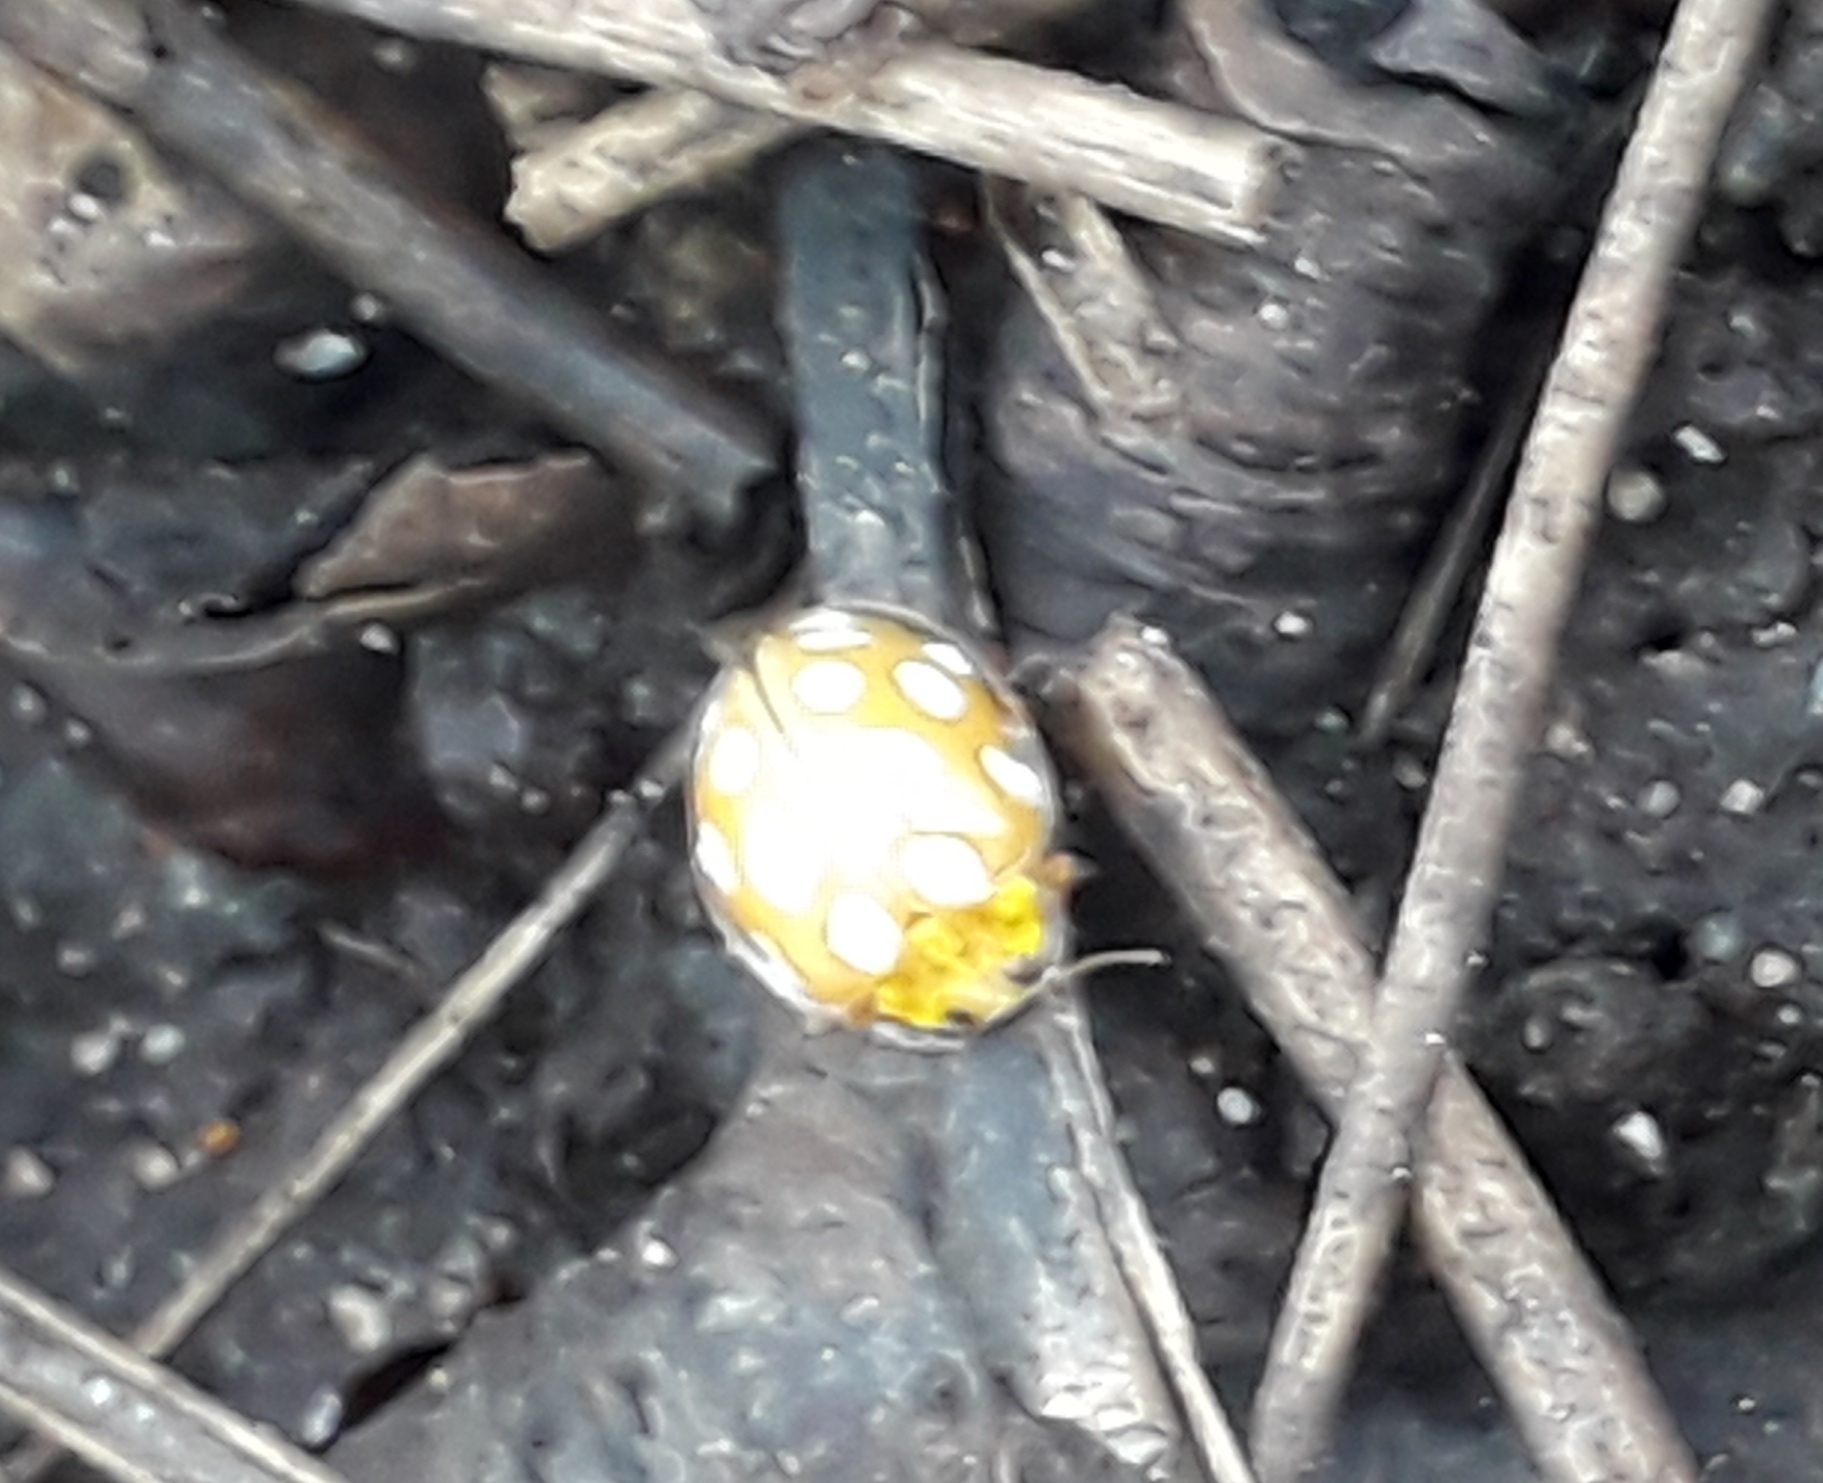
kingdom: Animalia
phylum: Arthropoda
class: Insecta
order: Coleoptera
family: Coccinellidae
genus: Halyzia
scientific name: Halyzia sedecimguttata
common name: Orange ladybird
